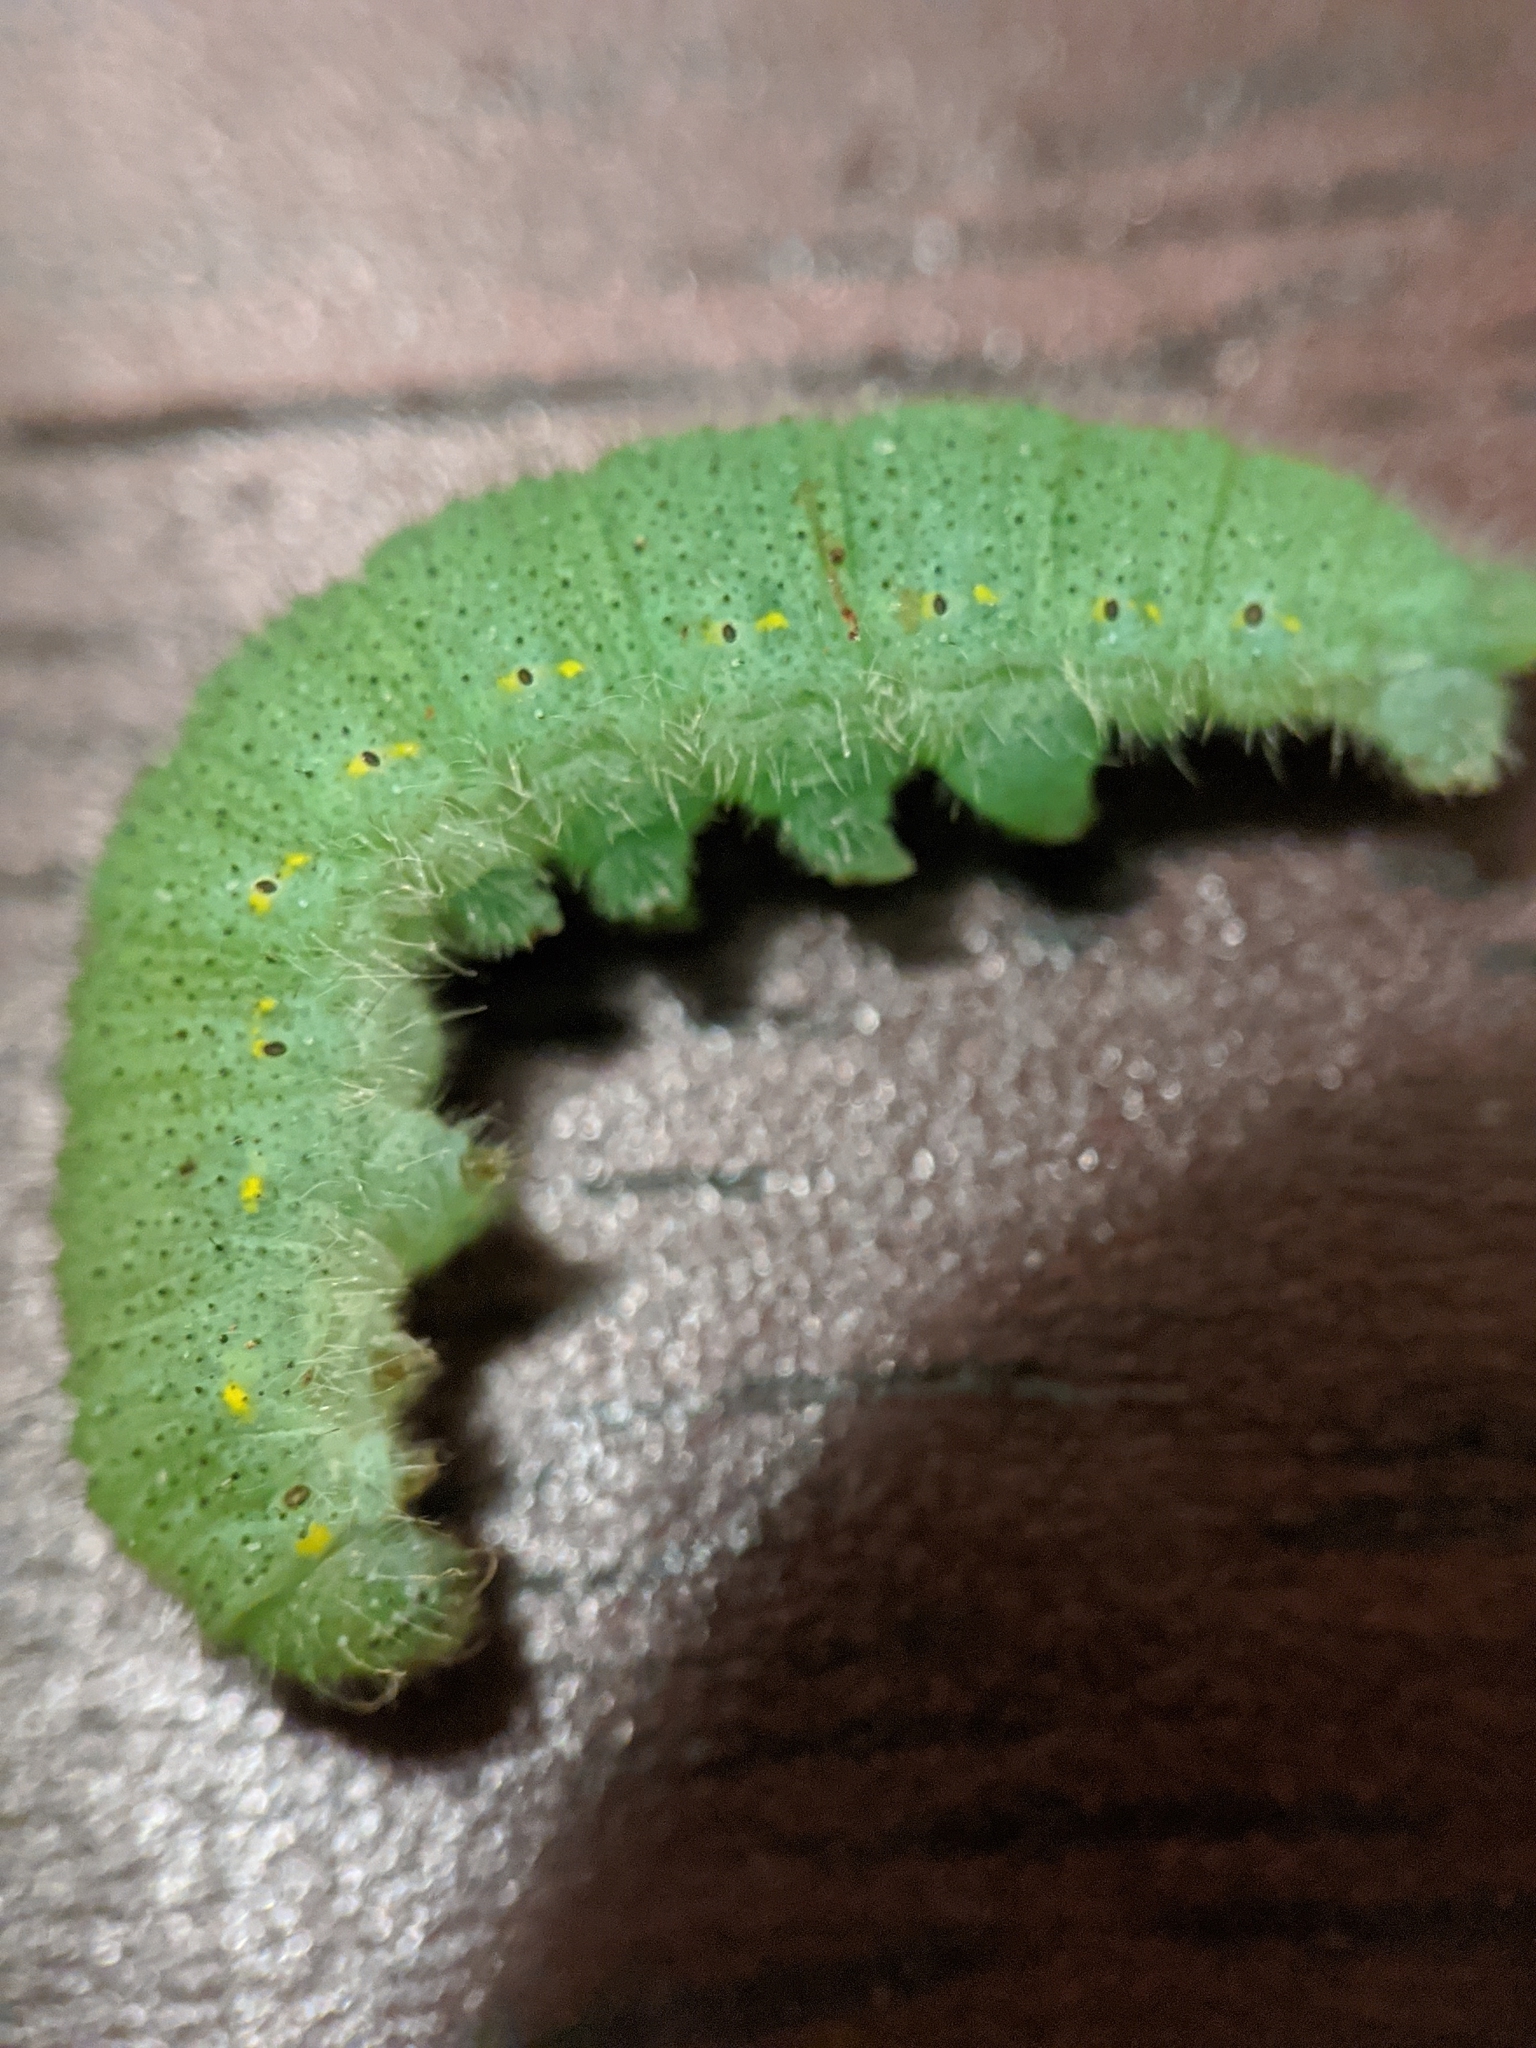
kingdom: Animalia
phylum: Arthropoda
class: Insecta
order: Lepidoptera
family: Pieridae
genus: Pieris
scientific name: Pieris rapae
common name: Small white
